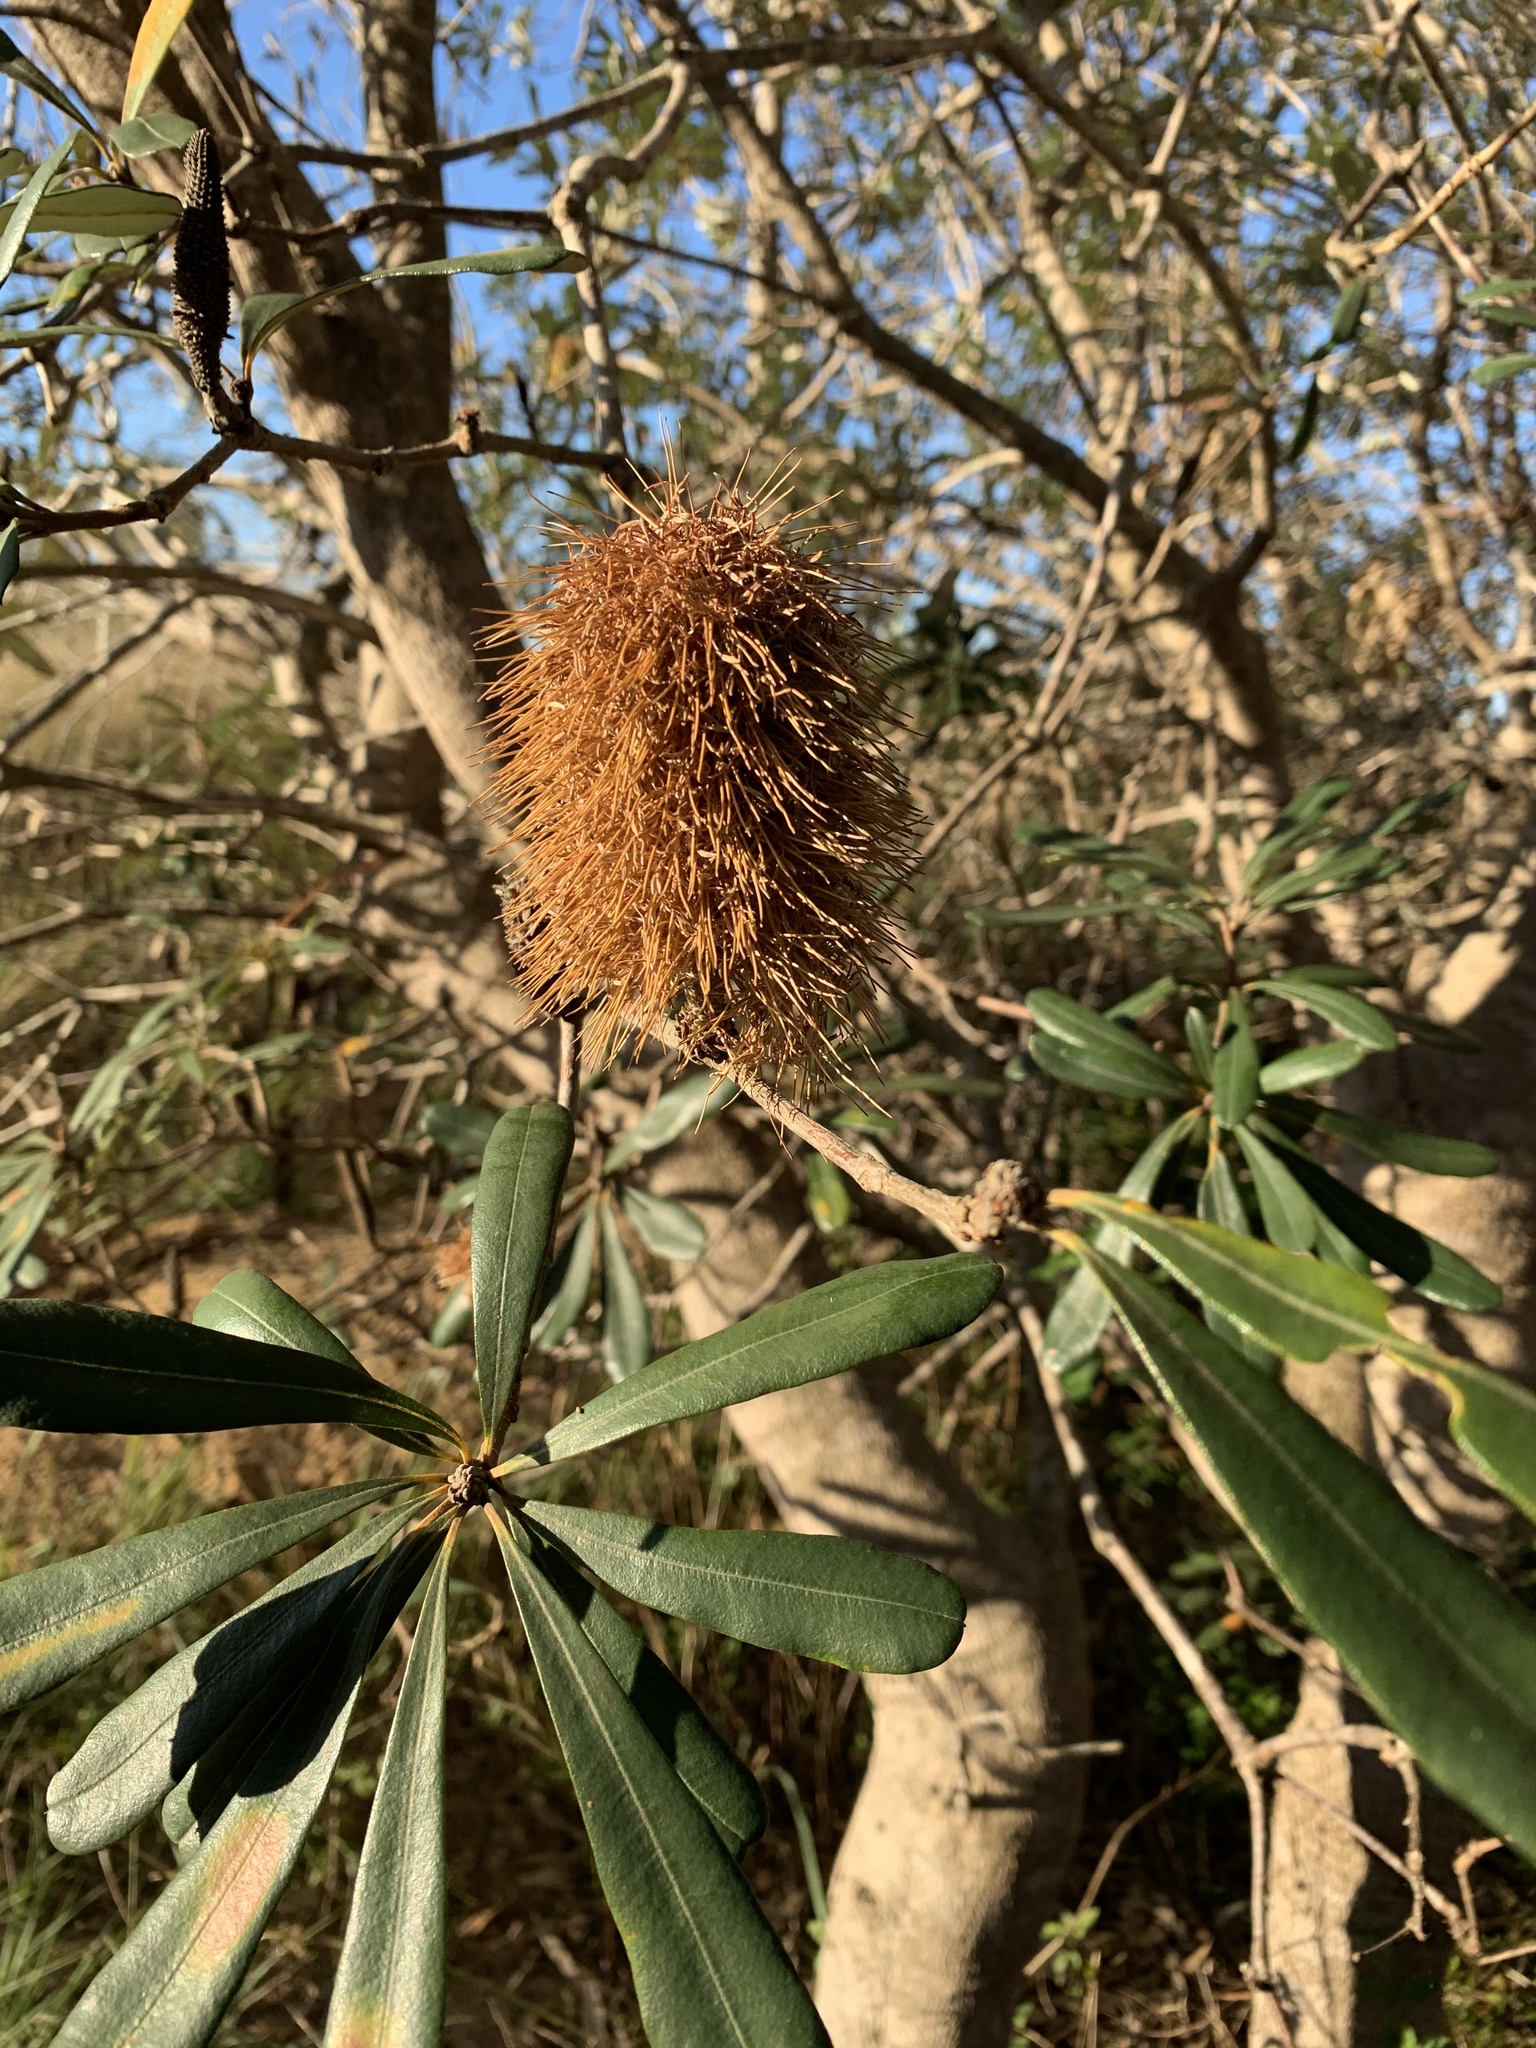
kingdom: Plantae
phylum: Tracheophyta
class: Magnoliopsida
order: Proteales
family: Proteaceae
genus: Banksia
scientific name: Banksia integrifolia
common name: White-honeysuckle
